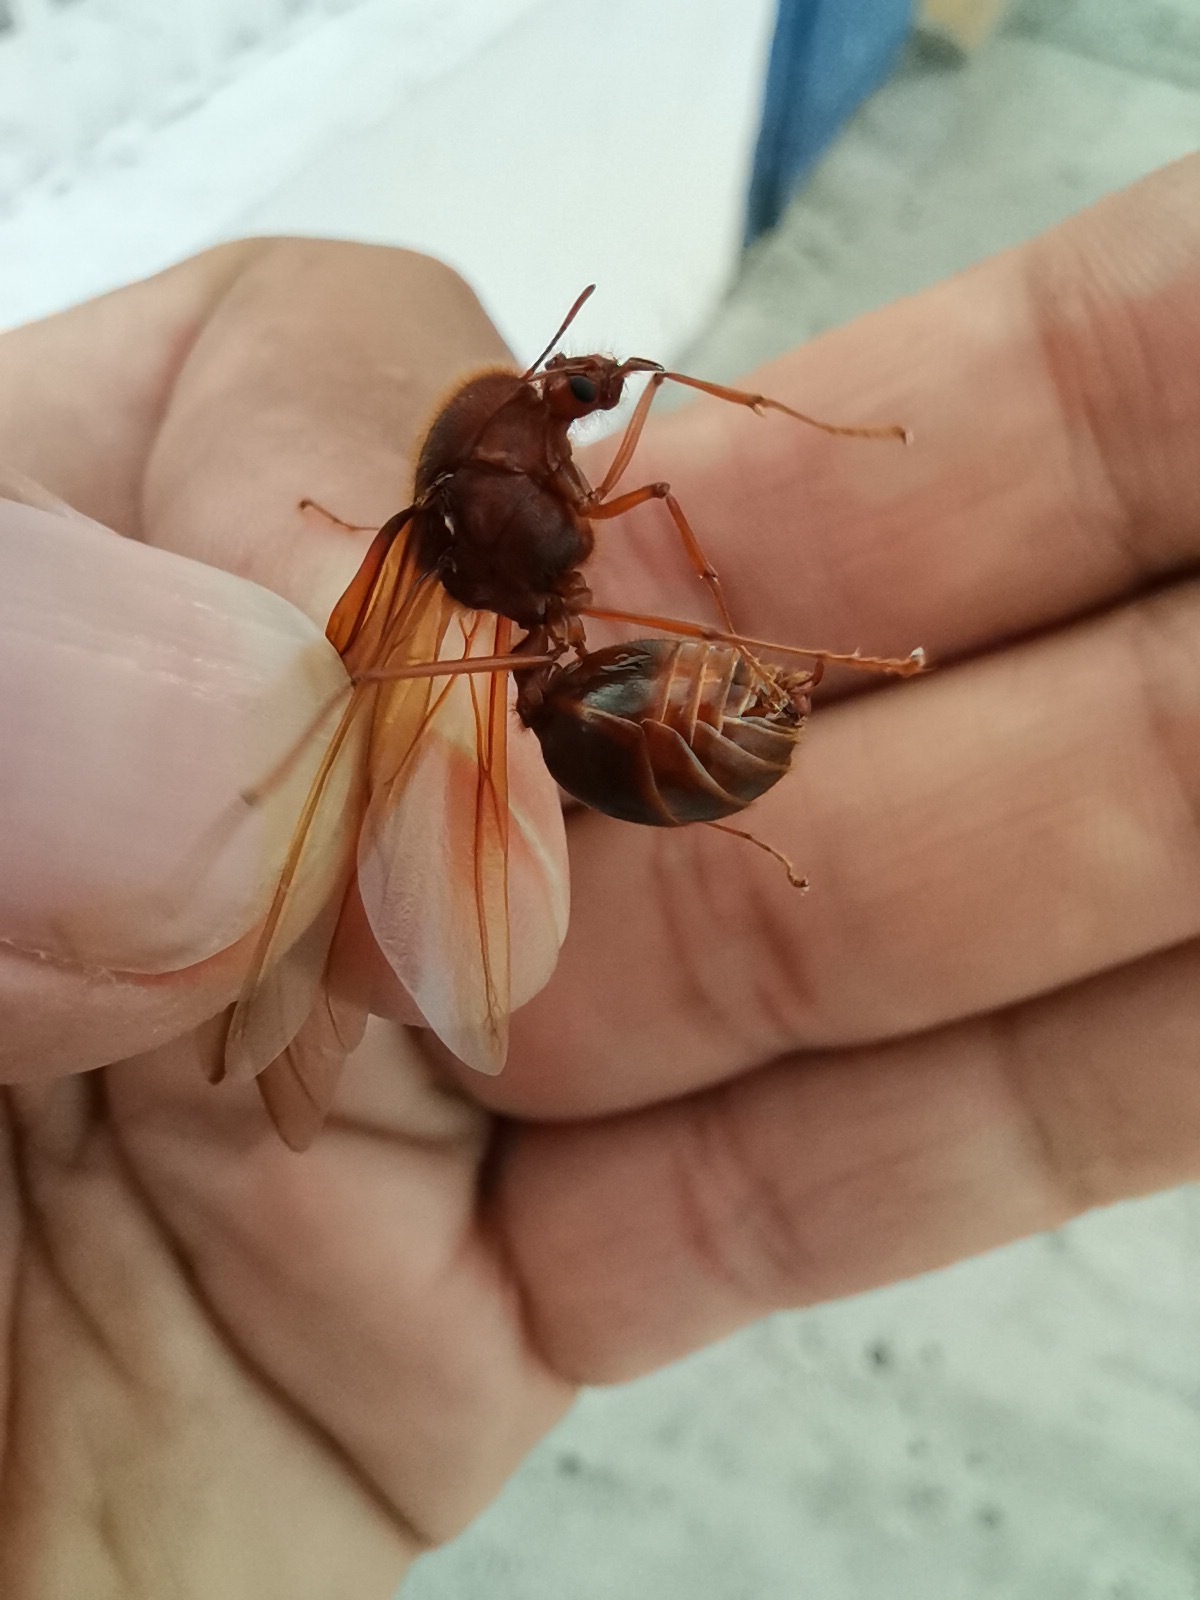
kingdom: Animalia
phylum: Arthropoda
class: Insecta
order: Hymenoptera
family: Formicidae
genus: Atta
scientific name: Atta mexicana
